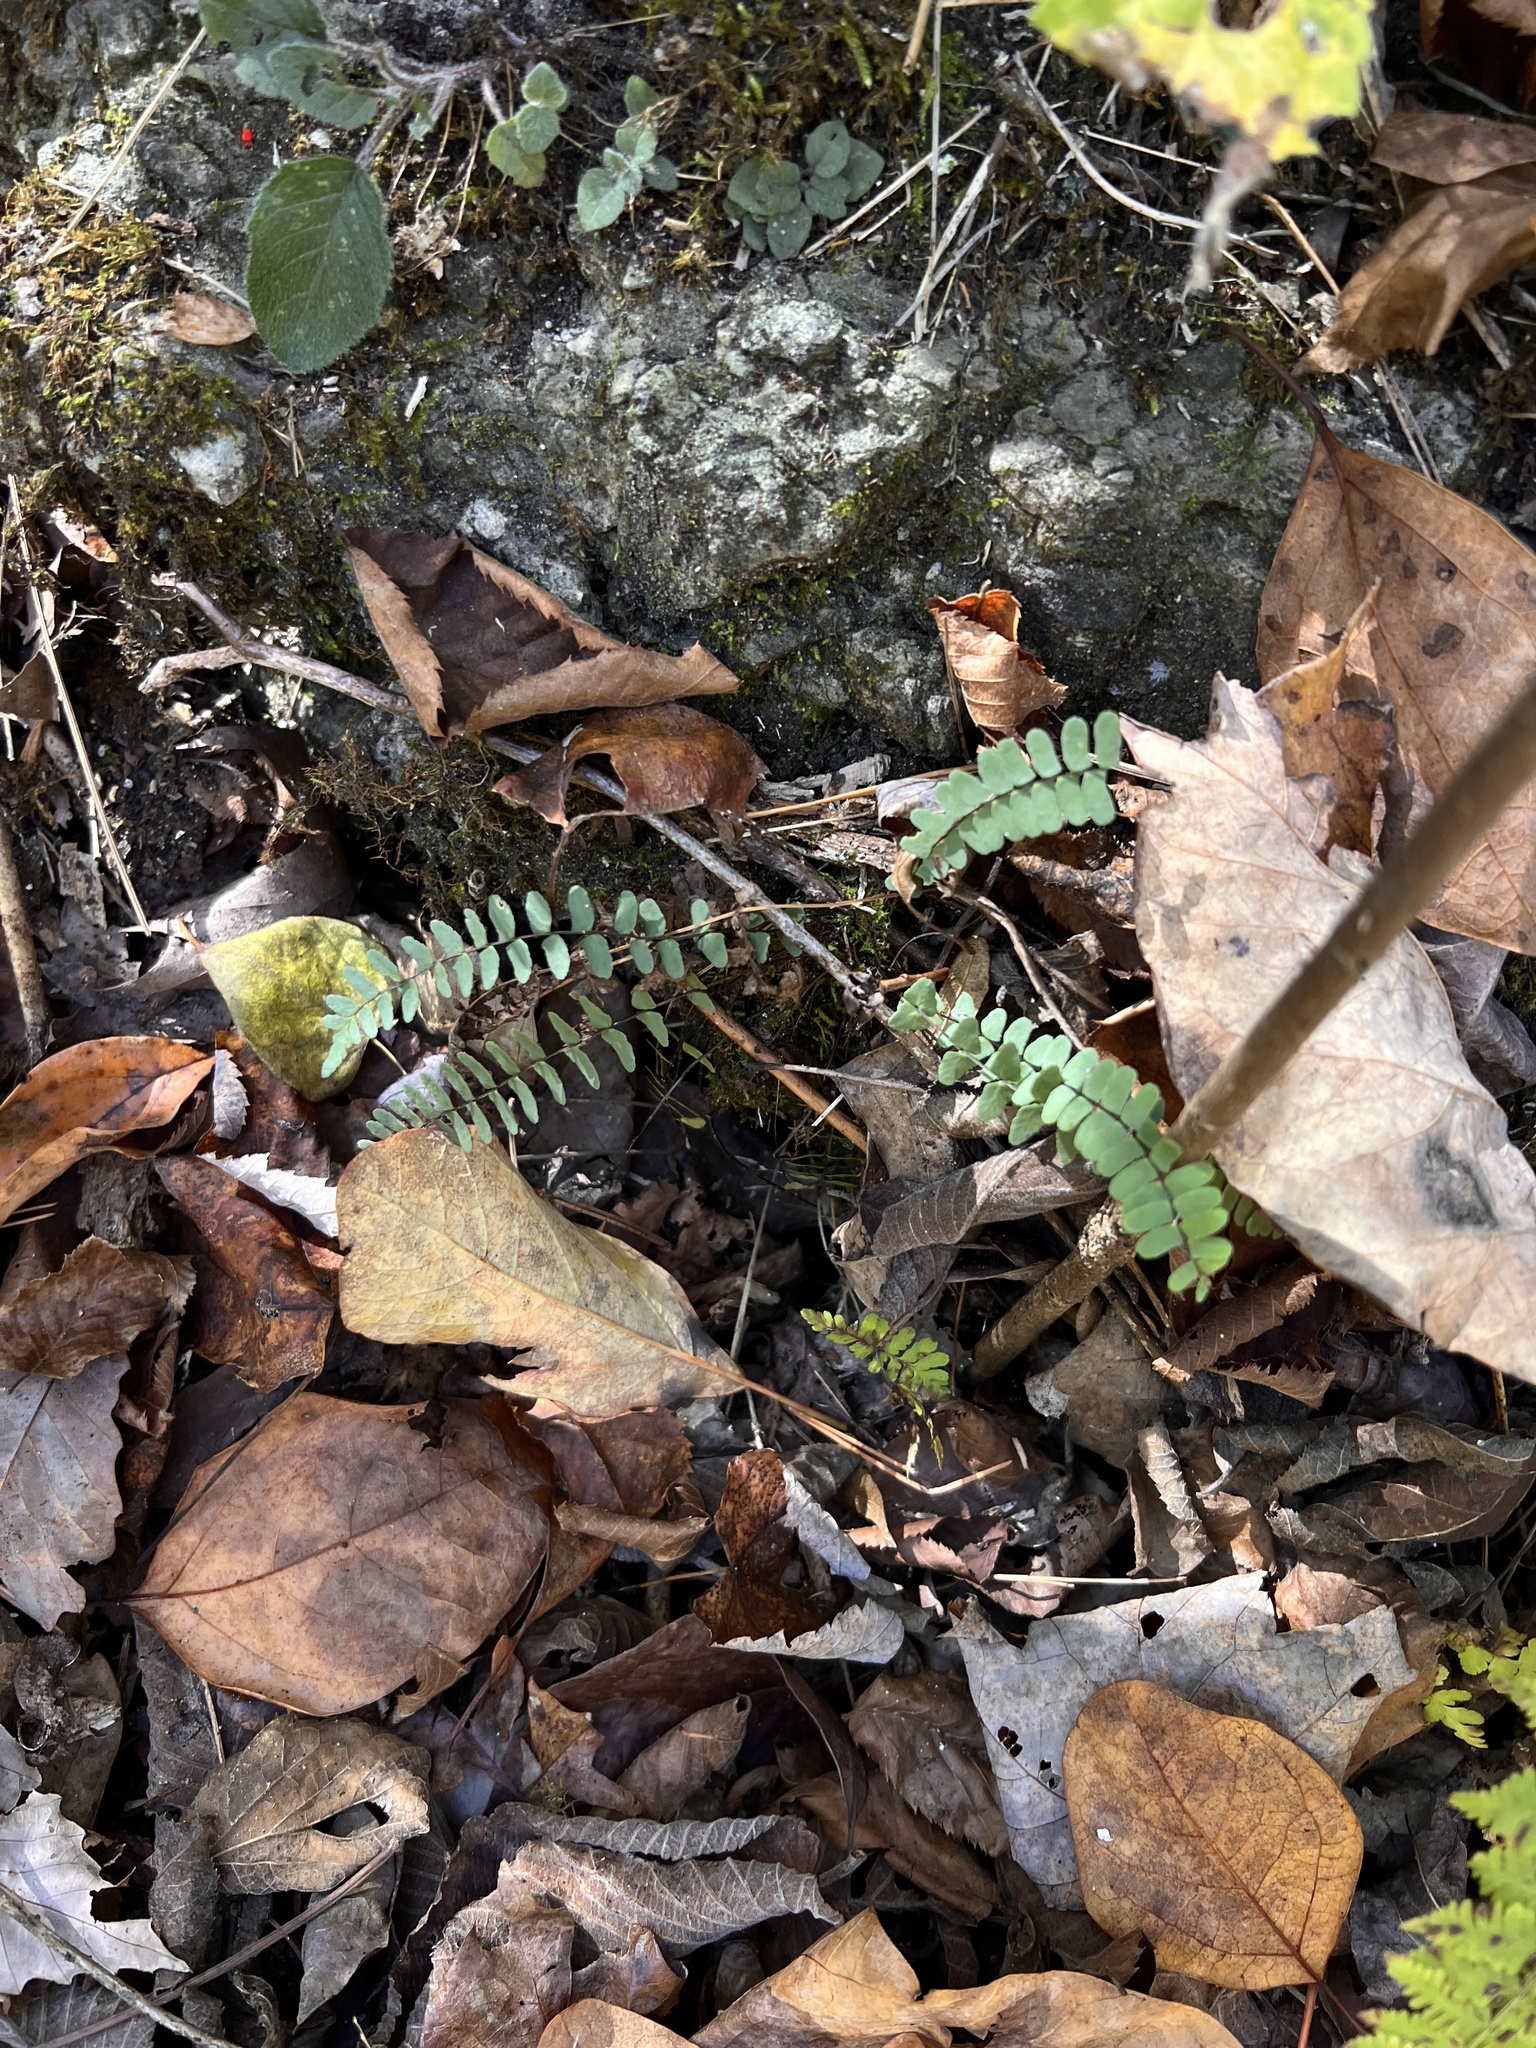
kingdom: Plantae
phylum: Tracheophyta
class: Polypodiopsida
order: Polypodiales
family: Aspleniaceae
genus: Asplenium
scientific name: Asplenium resiliens
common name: Blackstem spleenwort
